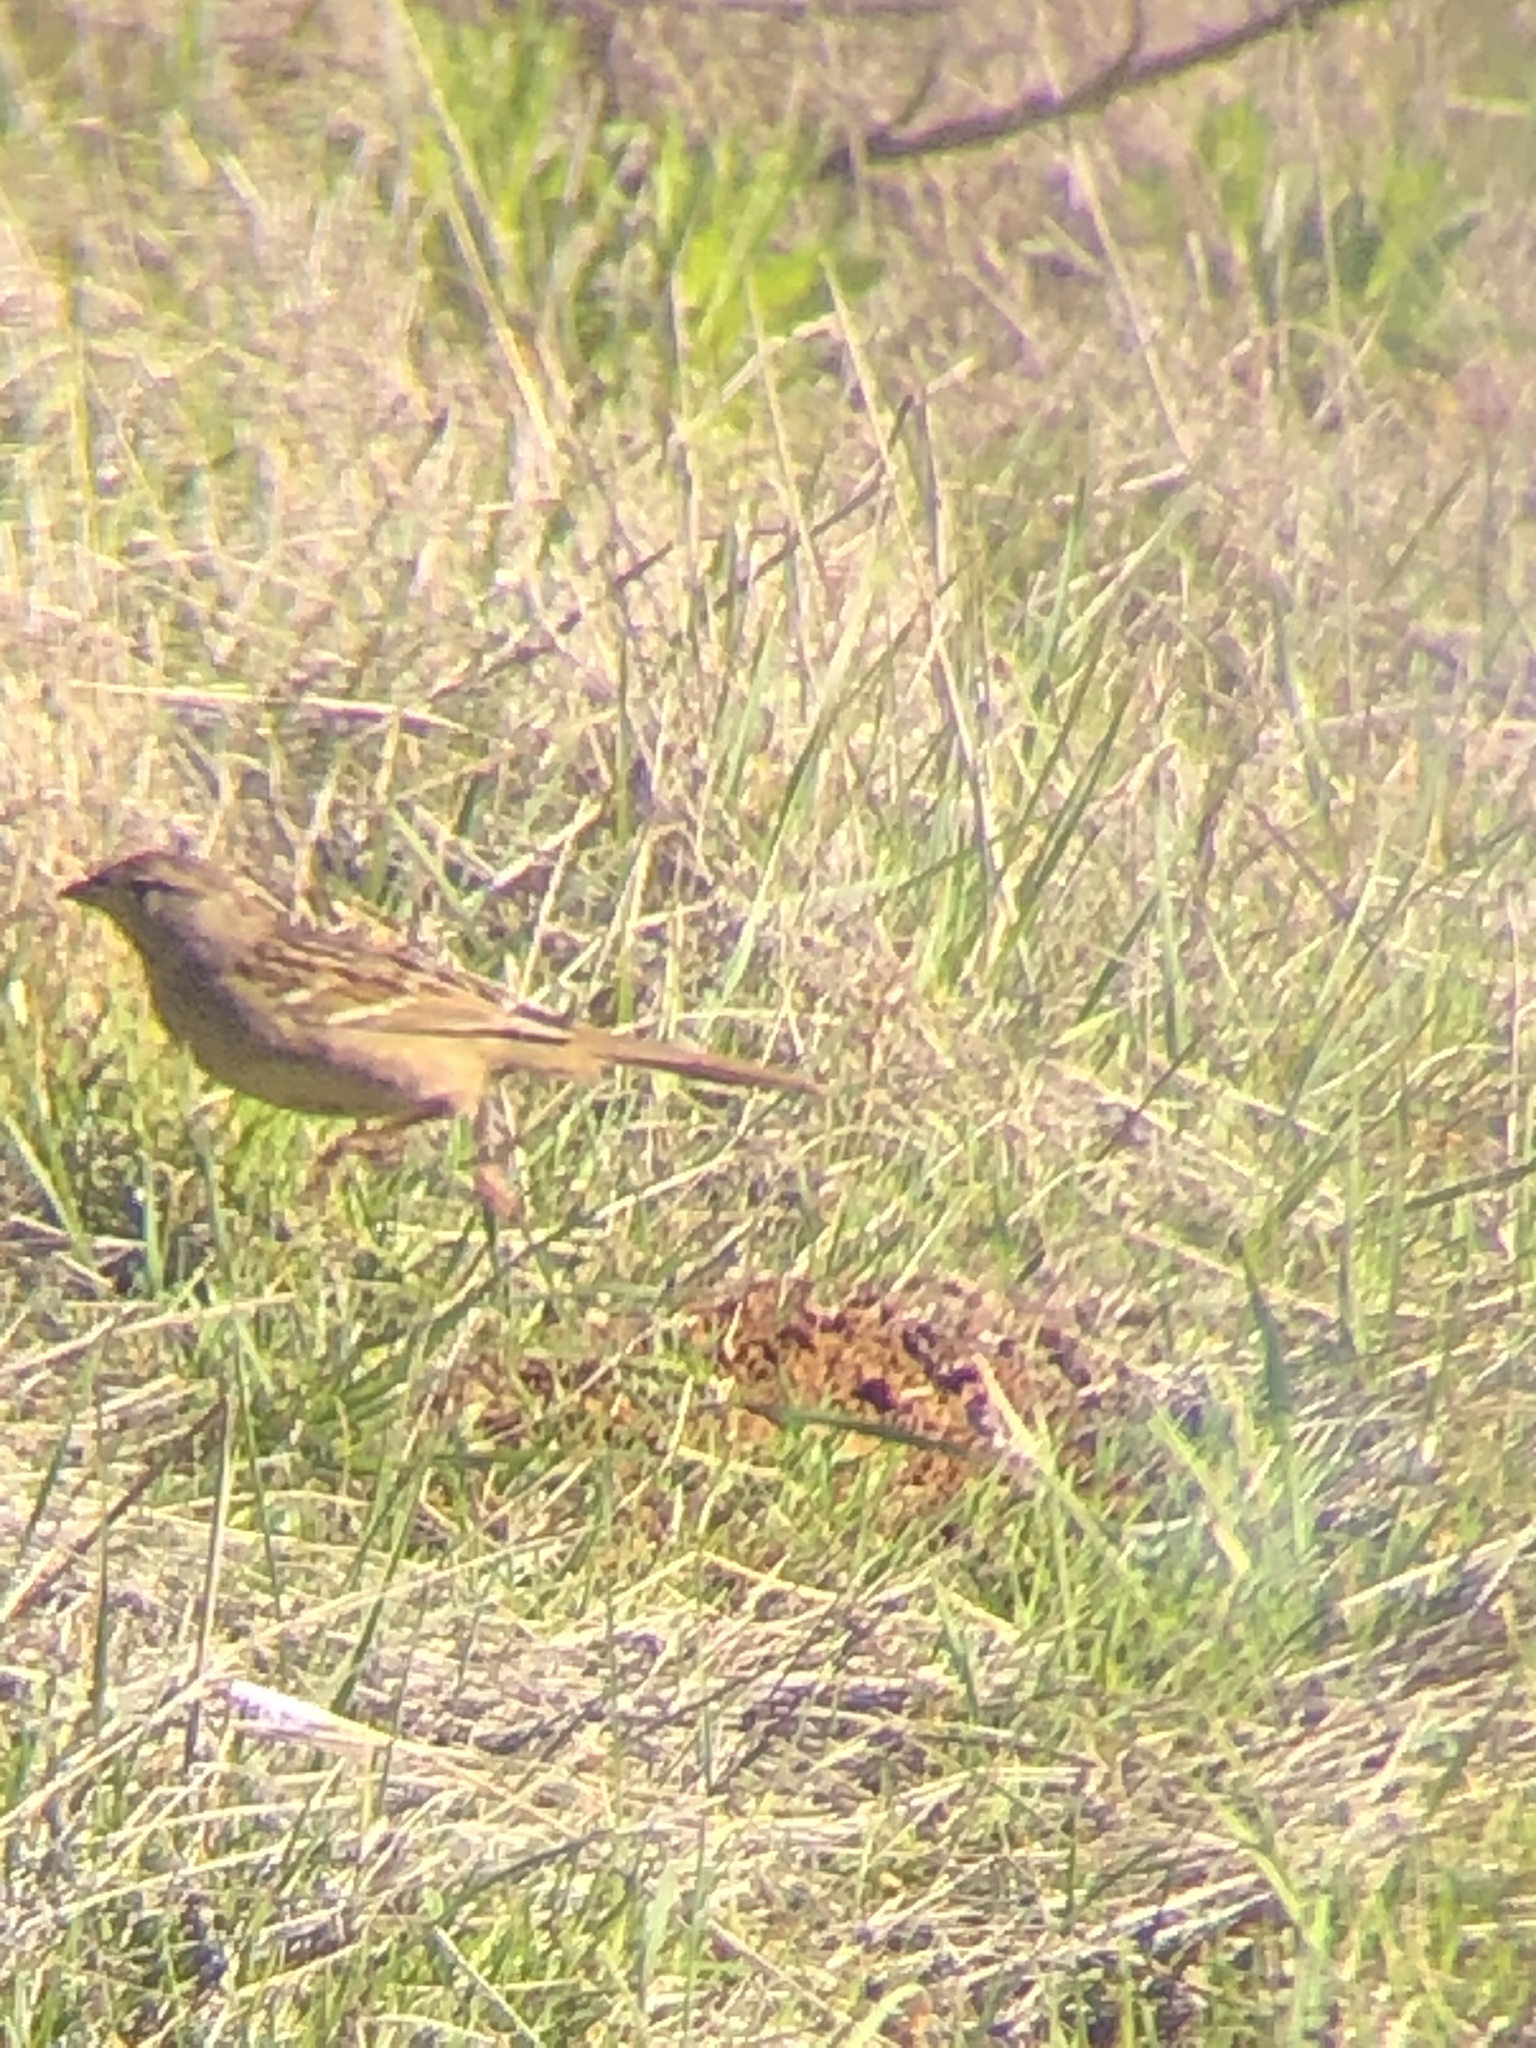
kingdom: Animalia
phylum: Chordata
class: Aves
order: Passeriformes
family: Passerellidae
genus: Zonotrichia
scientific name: Zonotrichia atricapilla
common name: Golden-crowned sparrow
